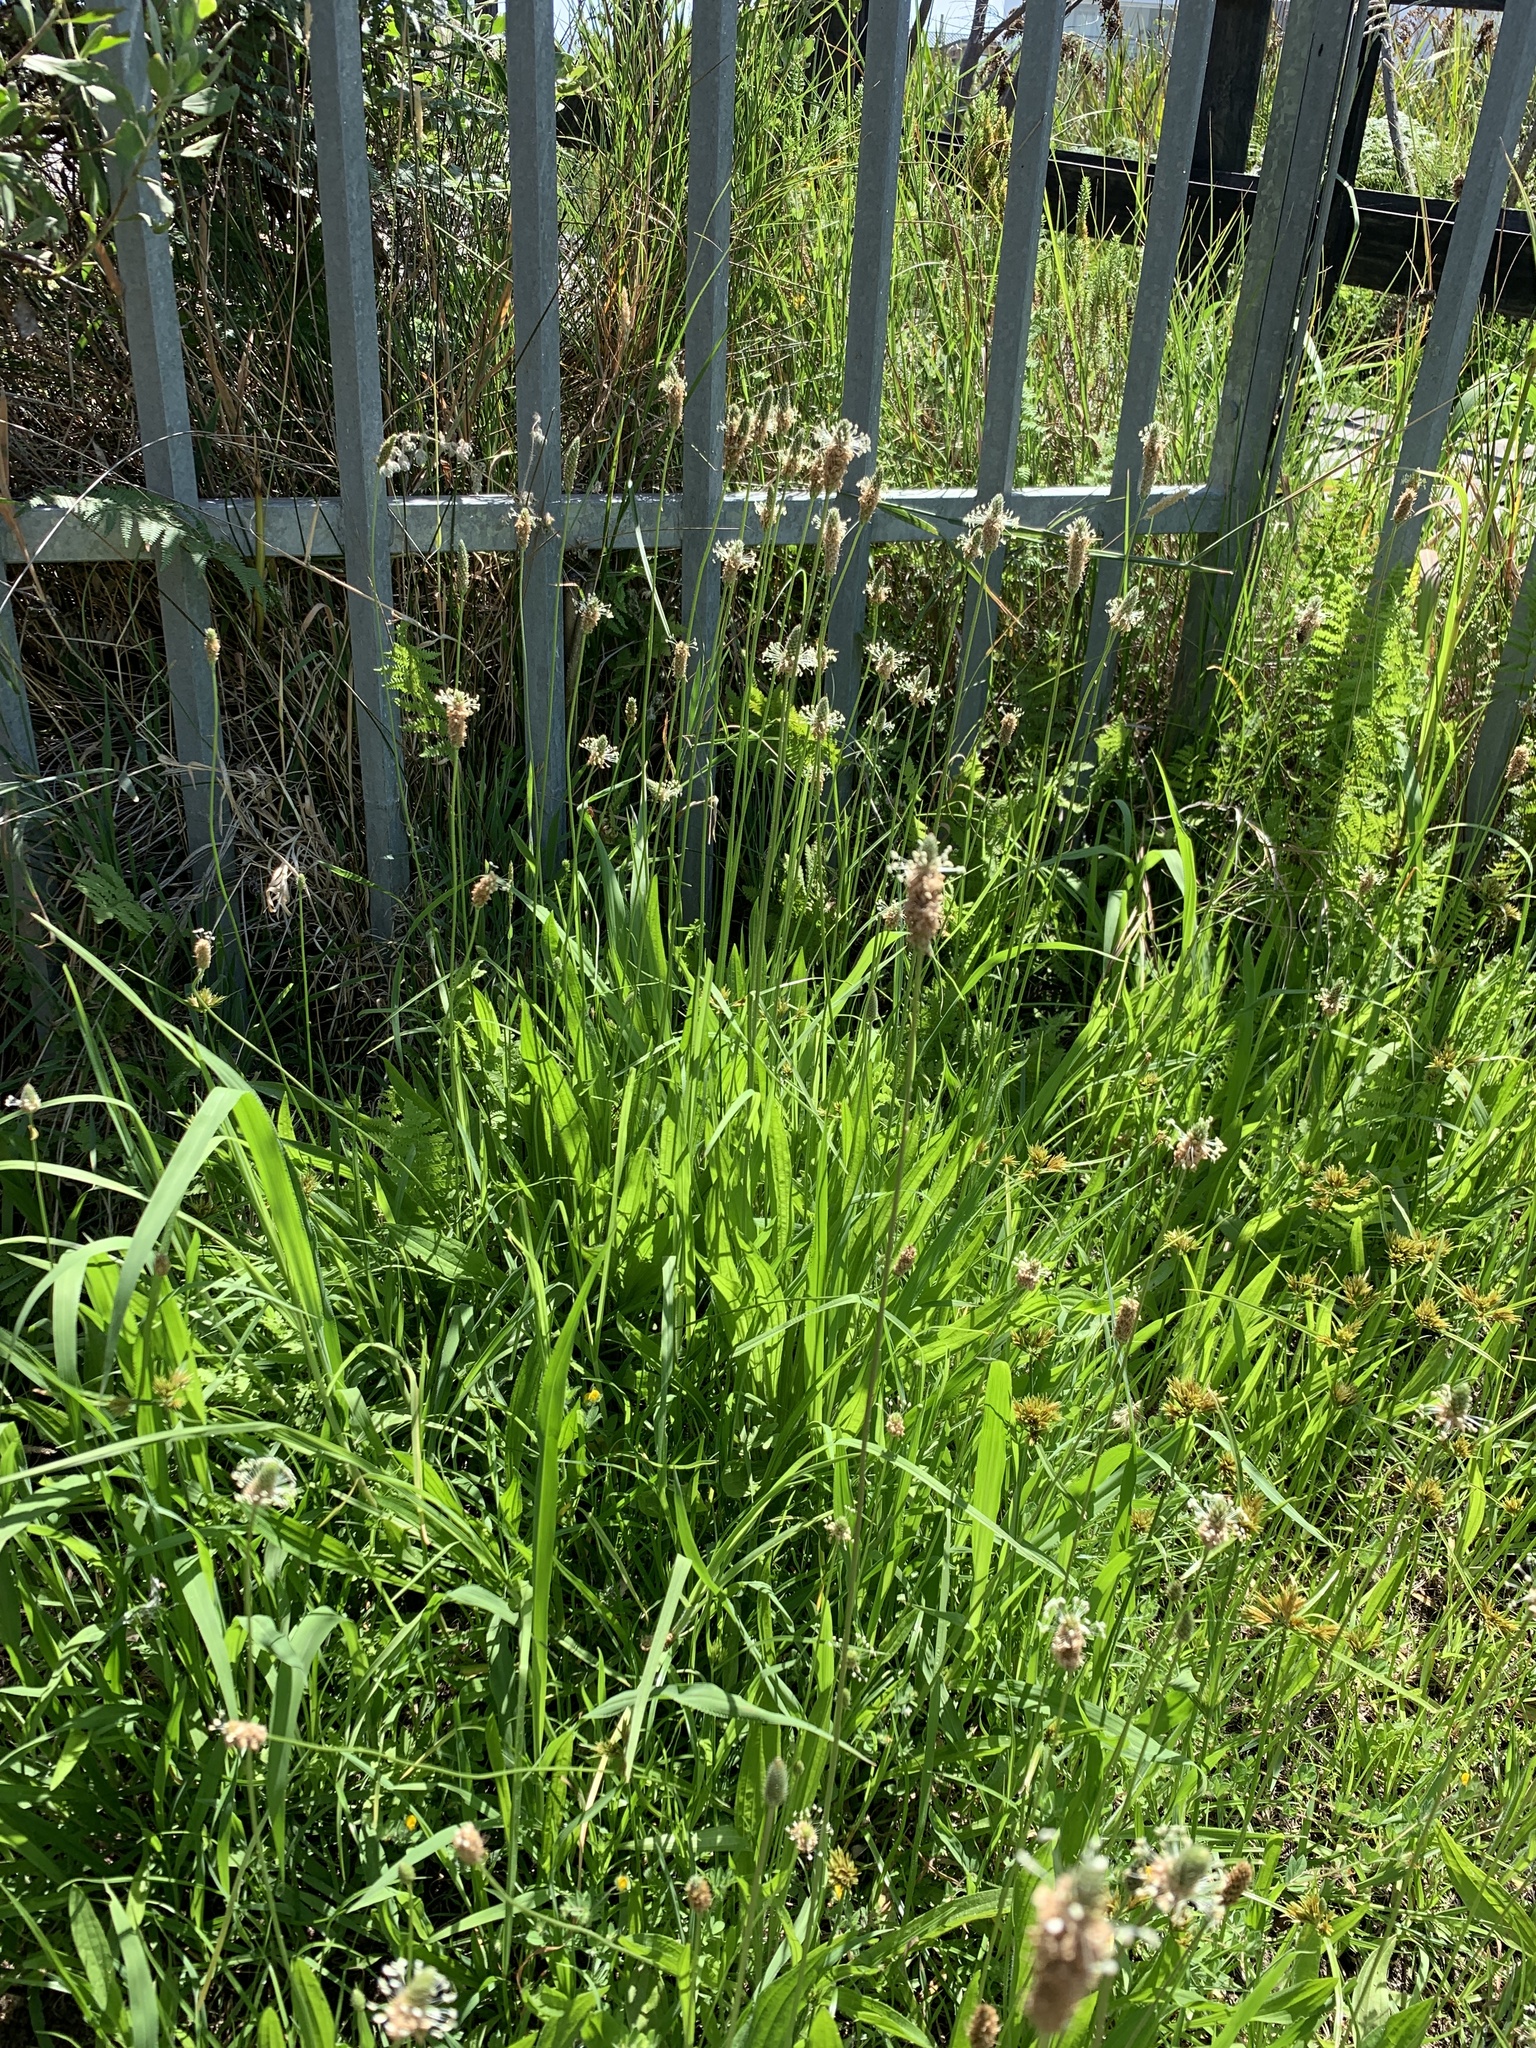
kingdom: Plantae
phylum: Tracheophyta
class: Magnoliopsida
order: Lamiales
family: Plantaginaceae
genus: Plantago
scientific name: Plantago lanceolata
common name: Ribwort plantain
